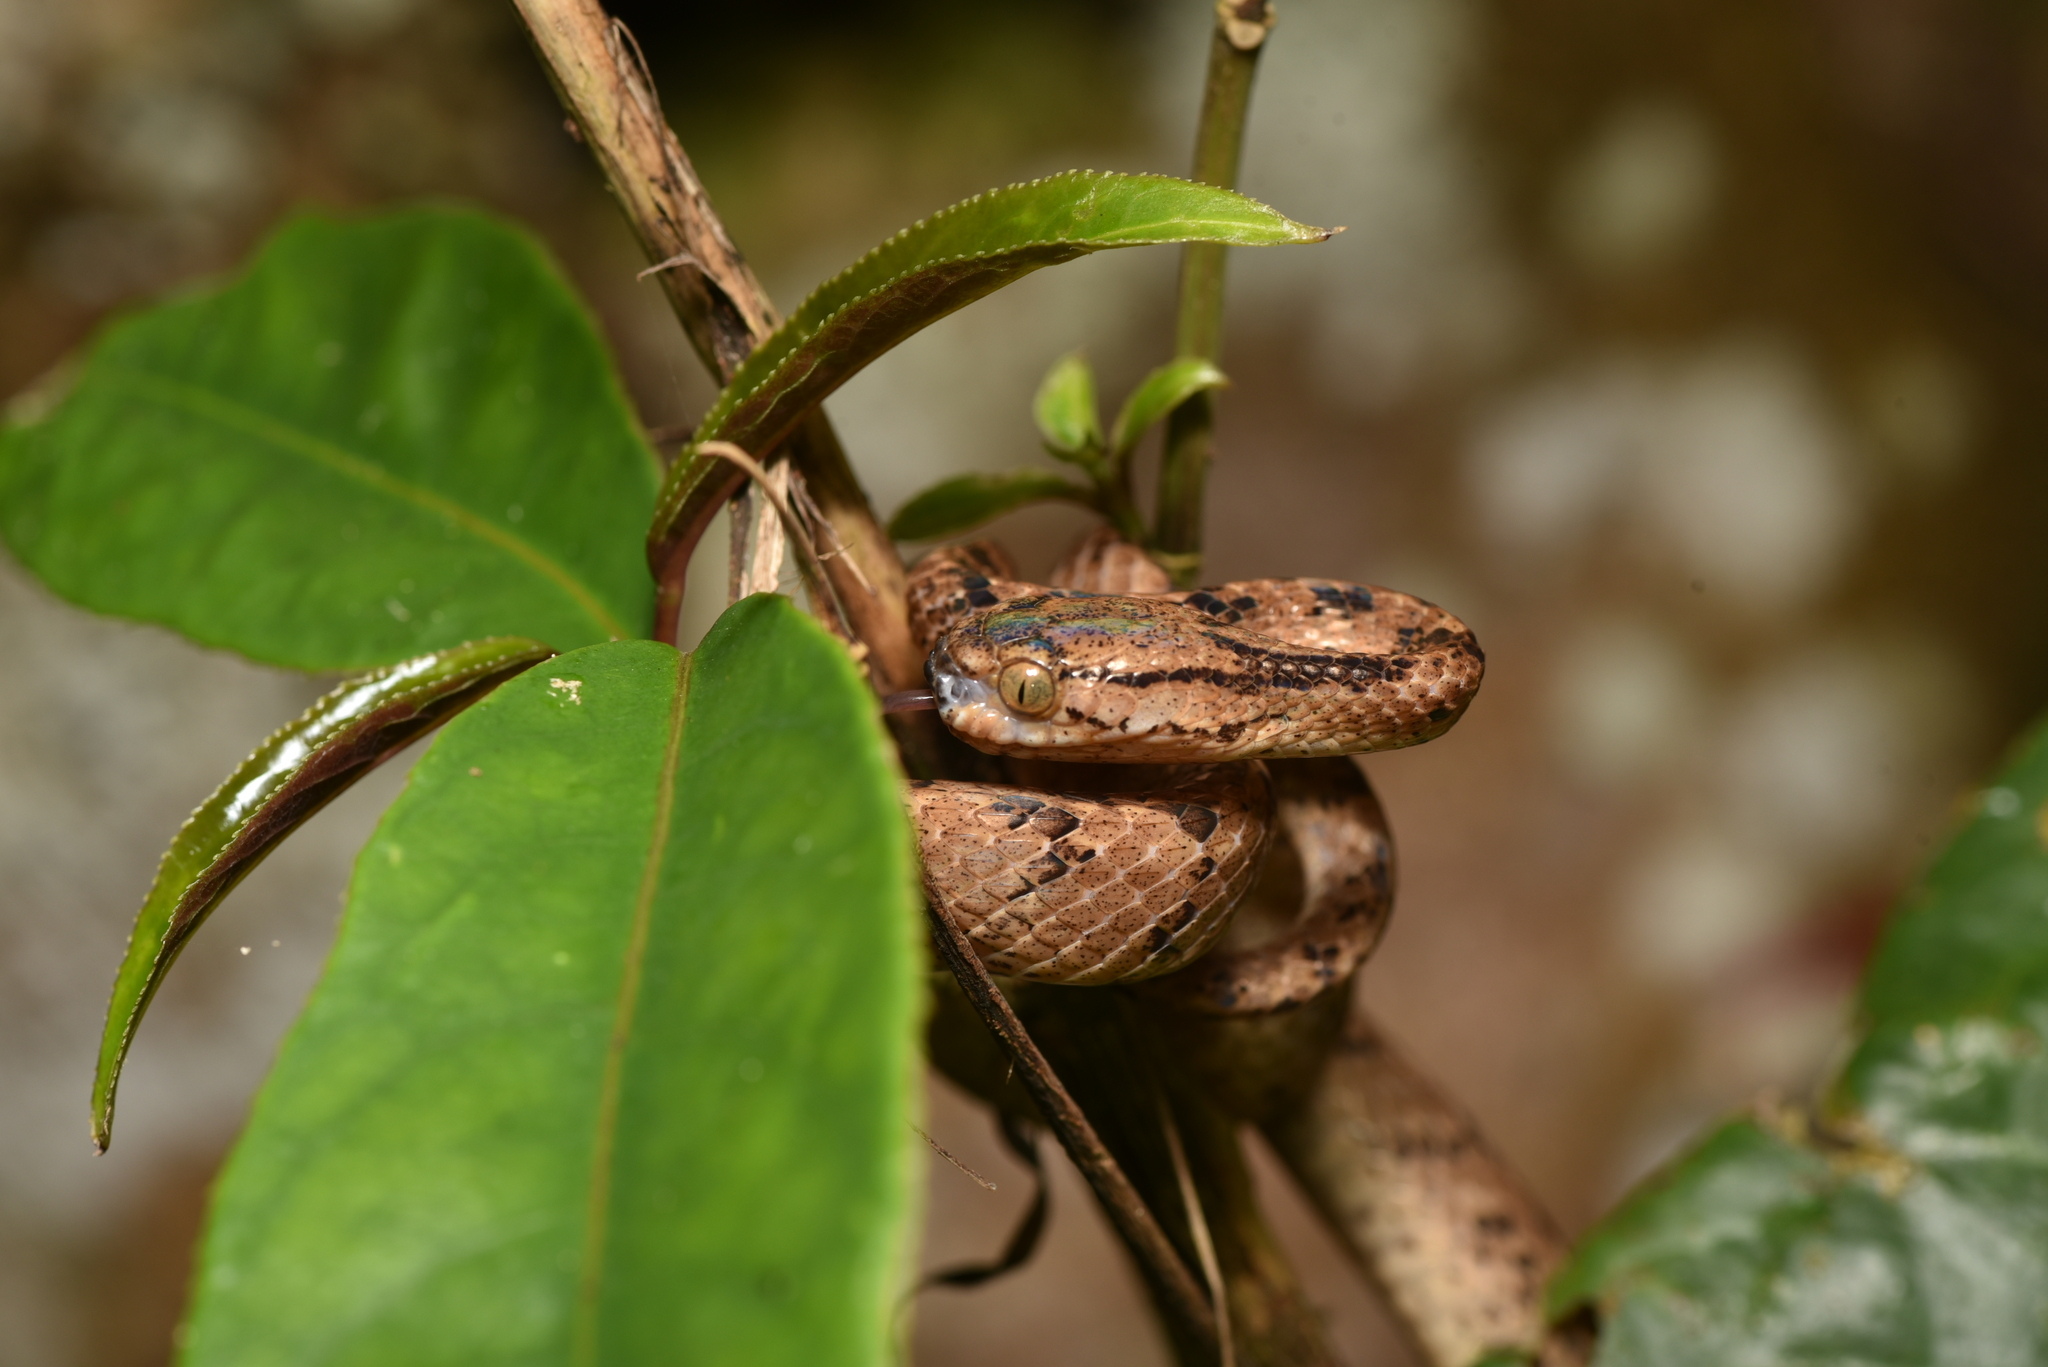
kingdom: Animalia
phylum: Chordata
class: Squamata
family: Pareidae
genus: Pareas
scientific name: Pareas komaii
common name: Formosa slug snake
